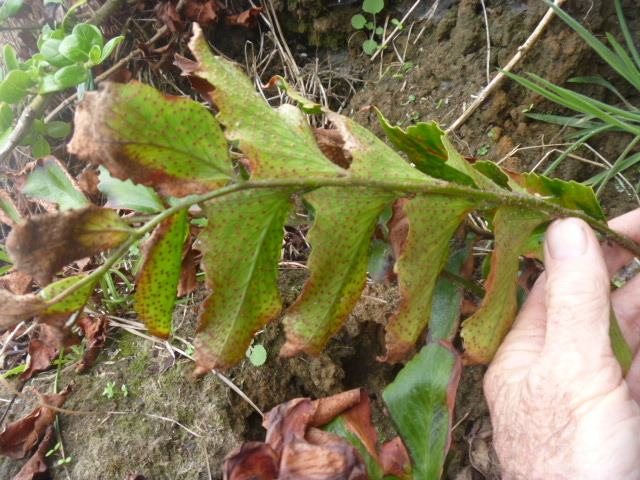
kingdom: Plantae
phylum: Tracheophyta
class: Polypodiopsida
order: Polypodiales
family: Dryopteridaceae
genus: Cyrtomium
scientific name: Cyrtomium falcatum
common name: House holly-fern
